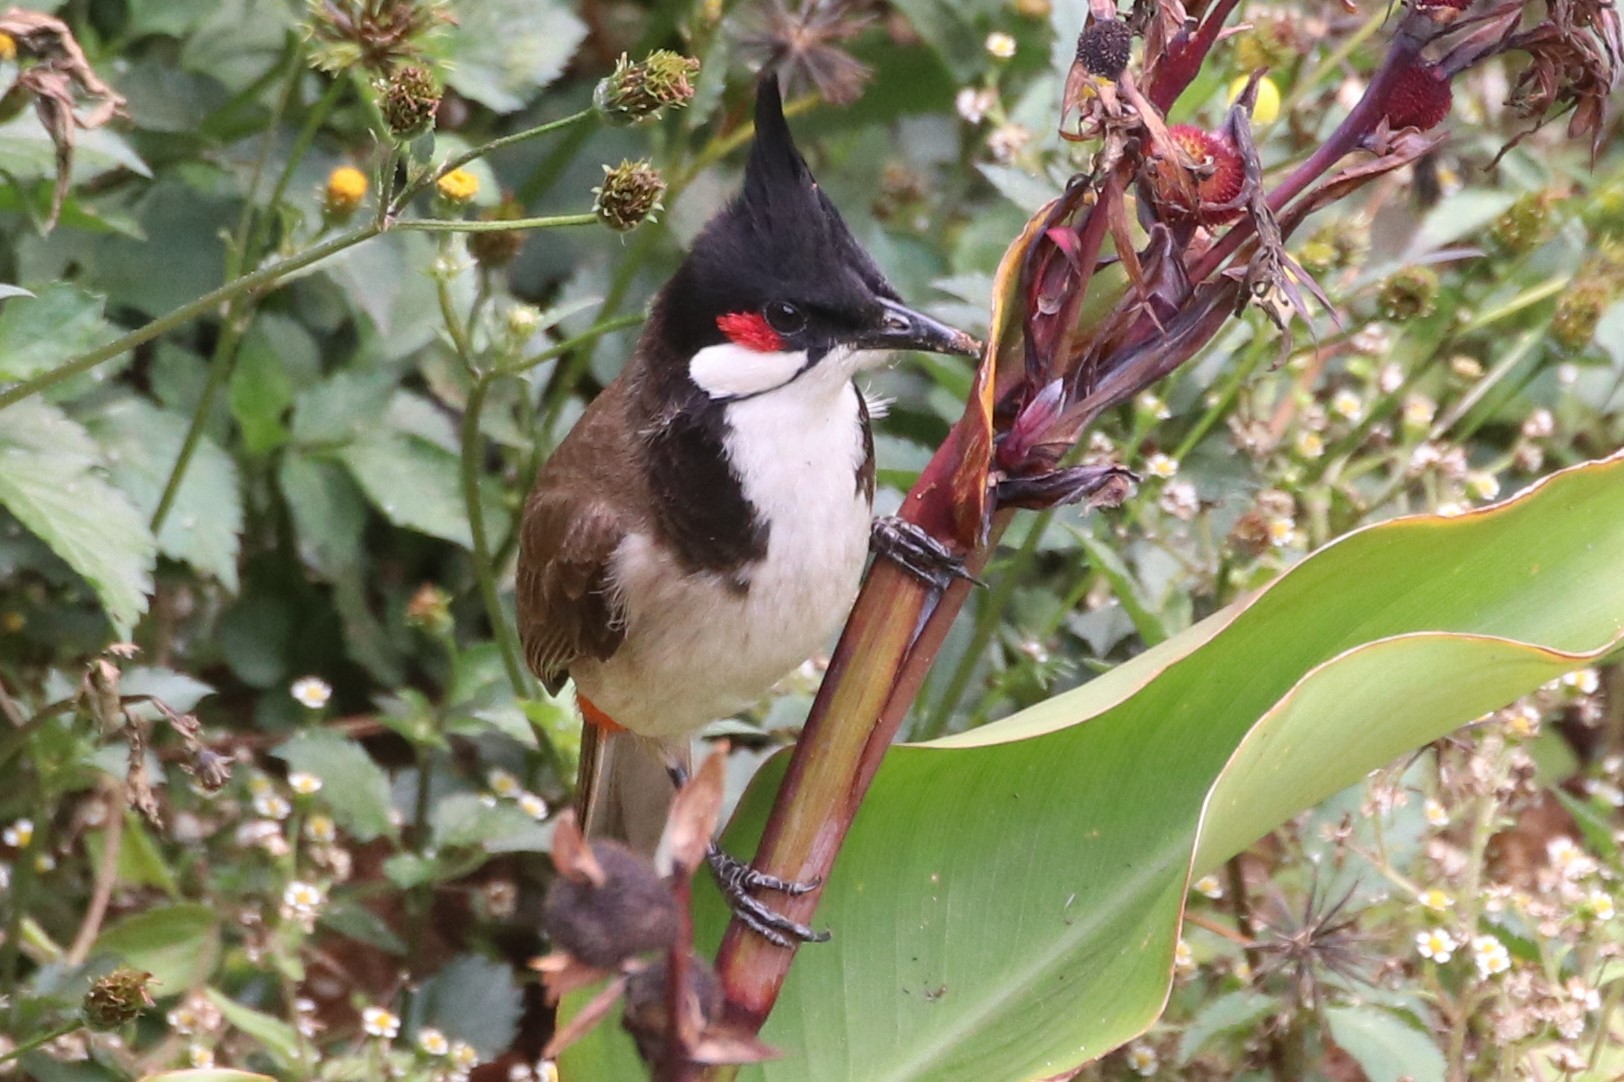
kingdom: Animalia
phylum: Chordata
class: Aves
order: Passeriformes
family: Pycnonotidae
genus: Pycnonotus
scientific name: Pycnonotus jocosus
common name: Red-whiskered bulbul
